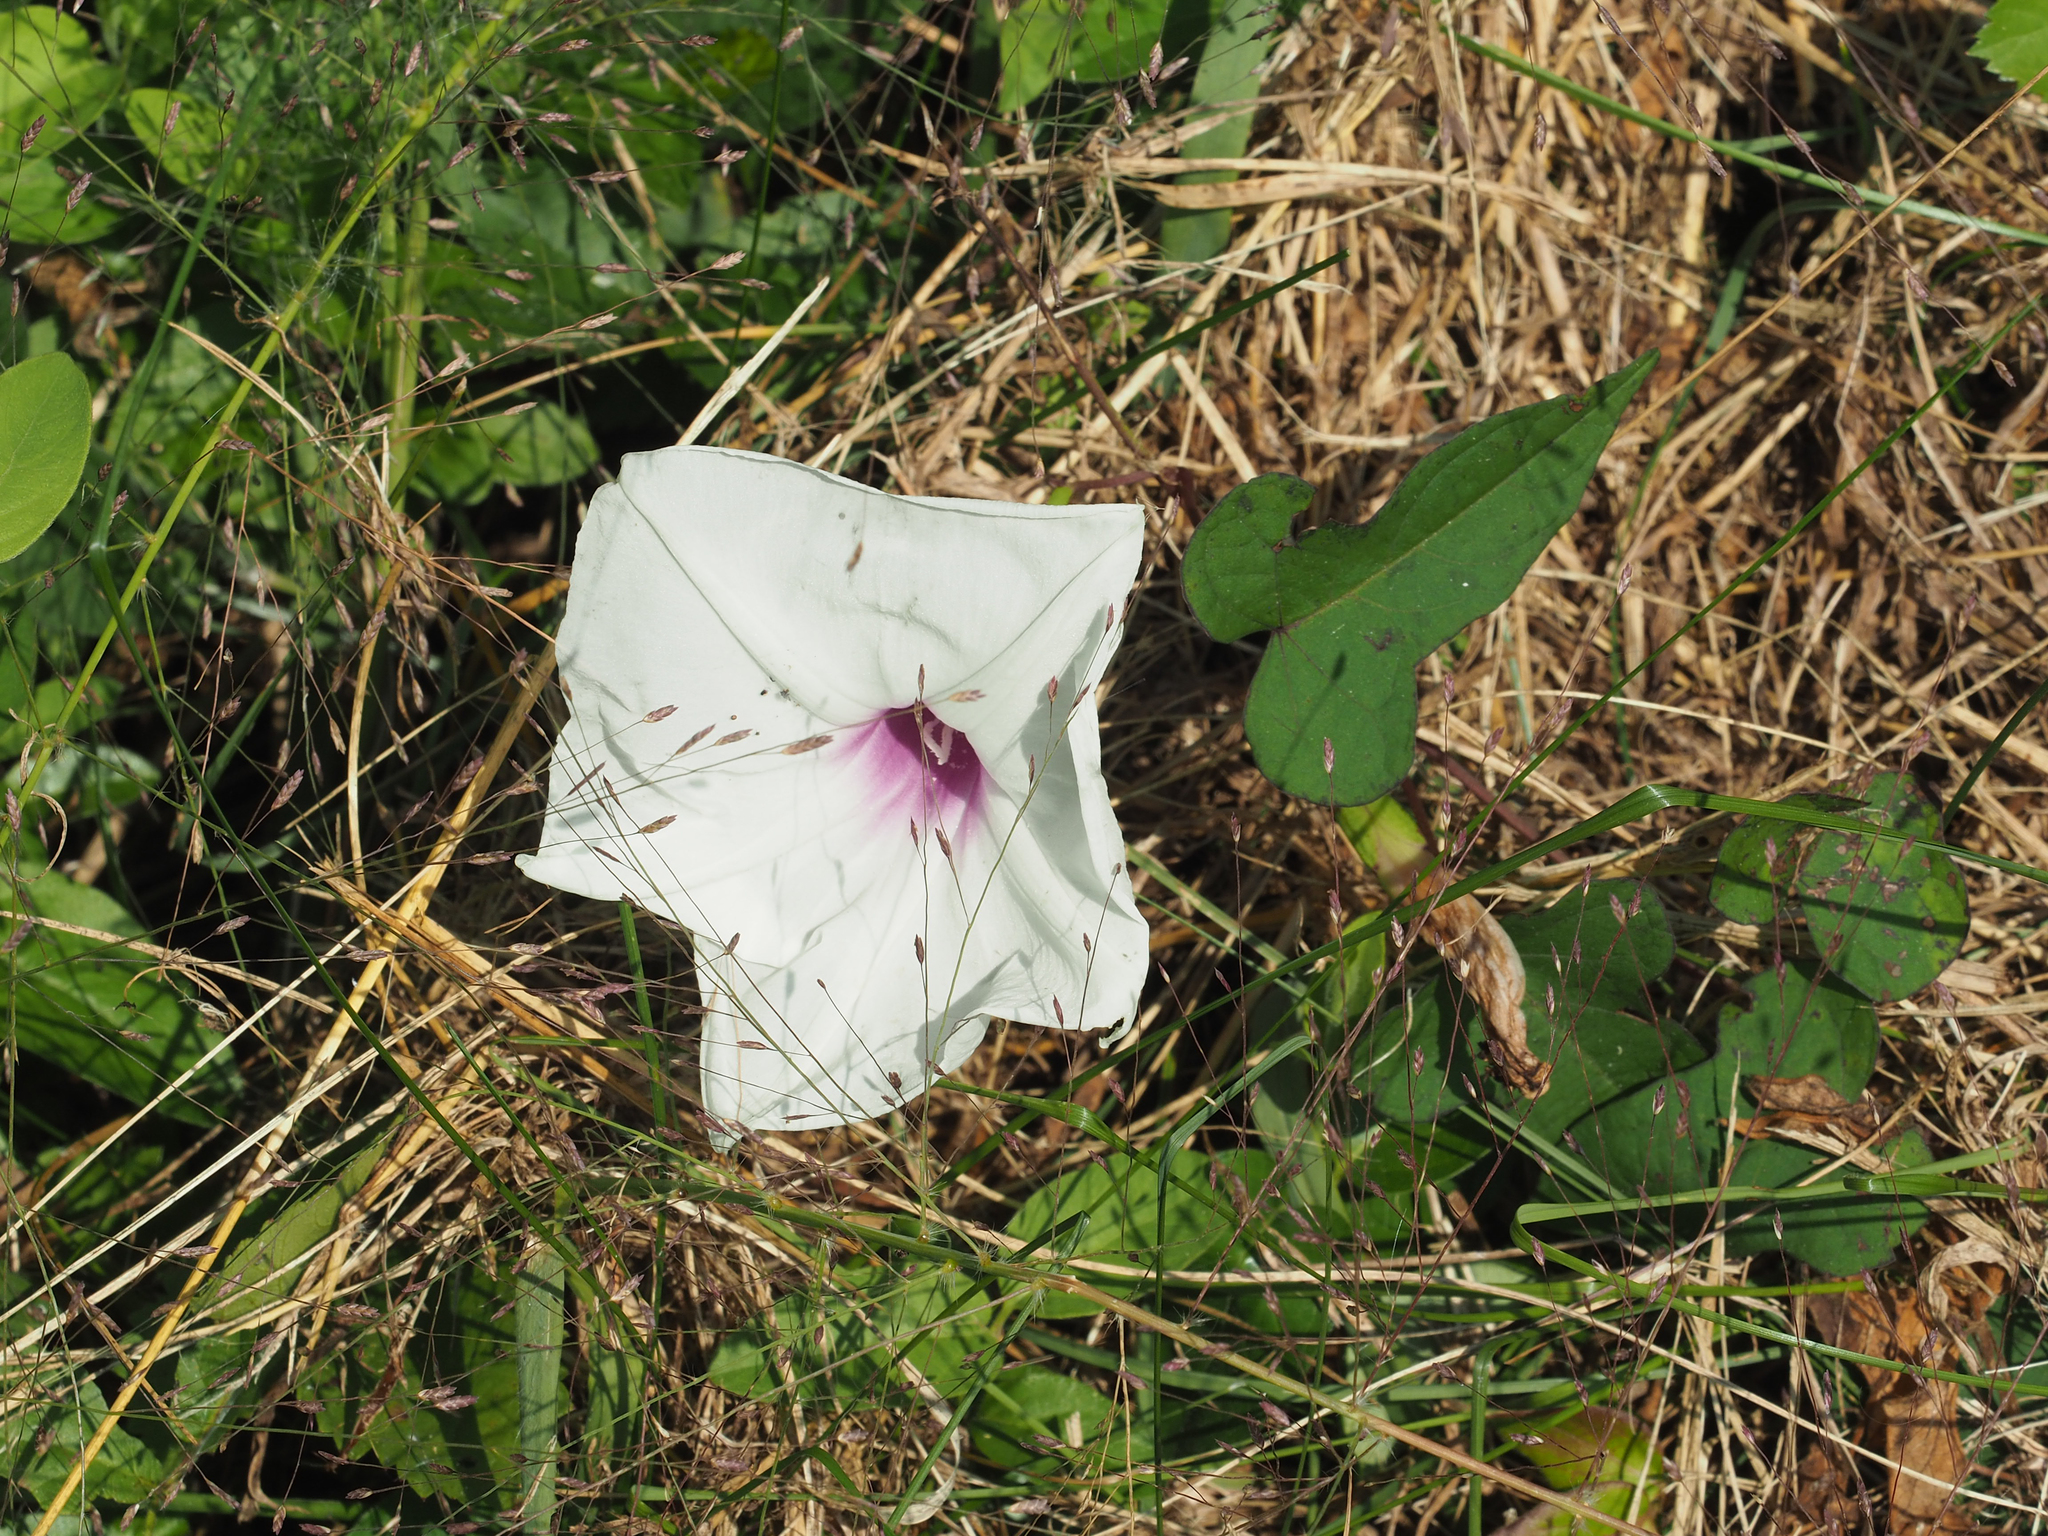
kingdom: Plantae
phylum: Tracheophyta
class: Magnoliopsida
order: Solanales
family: Convolvulaceae
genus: Ipomoea
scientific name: Ipomoea pandurata
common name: Man-of-the-earth
